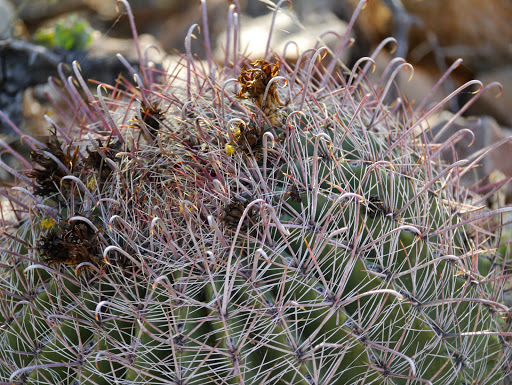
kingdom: Plantae
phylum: Tracheophyta
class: Magnoliopsida
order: Caryophyllales
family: Cactaceae
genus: Ferocactus
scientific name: Ferocactus wislizeni
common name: Candy barrel cactus
